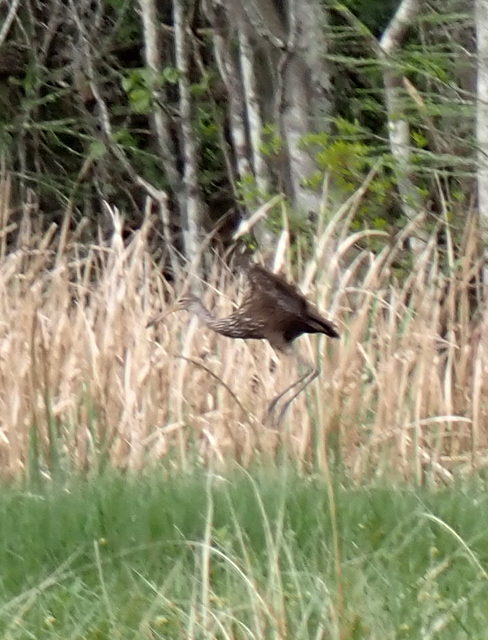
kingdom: Animalia
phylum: Chordata
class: Aves
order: Gruiformes
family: Aramidae
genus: Aramus
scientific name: Aramus guarauna
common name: Limpkin
